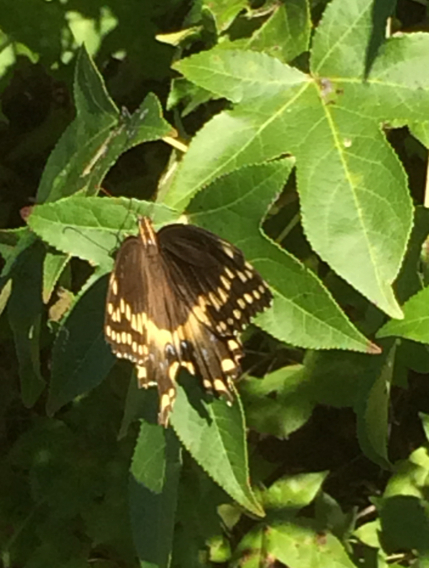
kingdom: Animalia
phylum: Arthropoda
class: Insecta
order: Lepidoptera
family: Papilionidae
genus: Papilio
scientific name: Papilio palamedes
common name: Palamedes swallowtail
